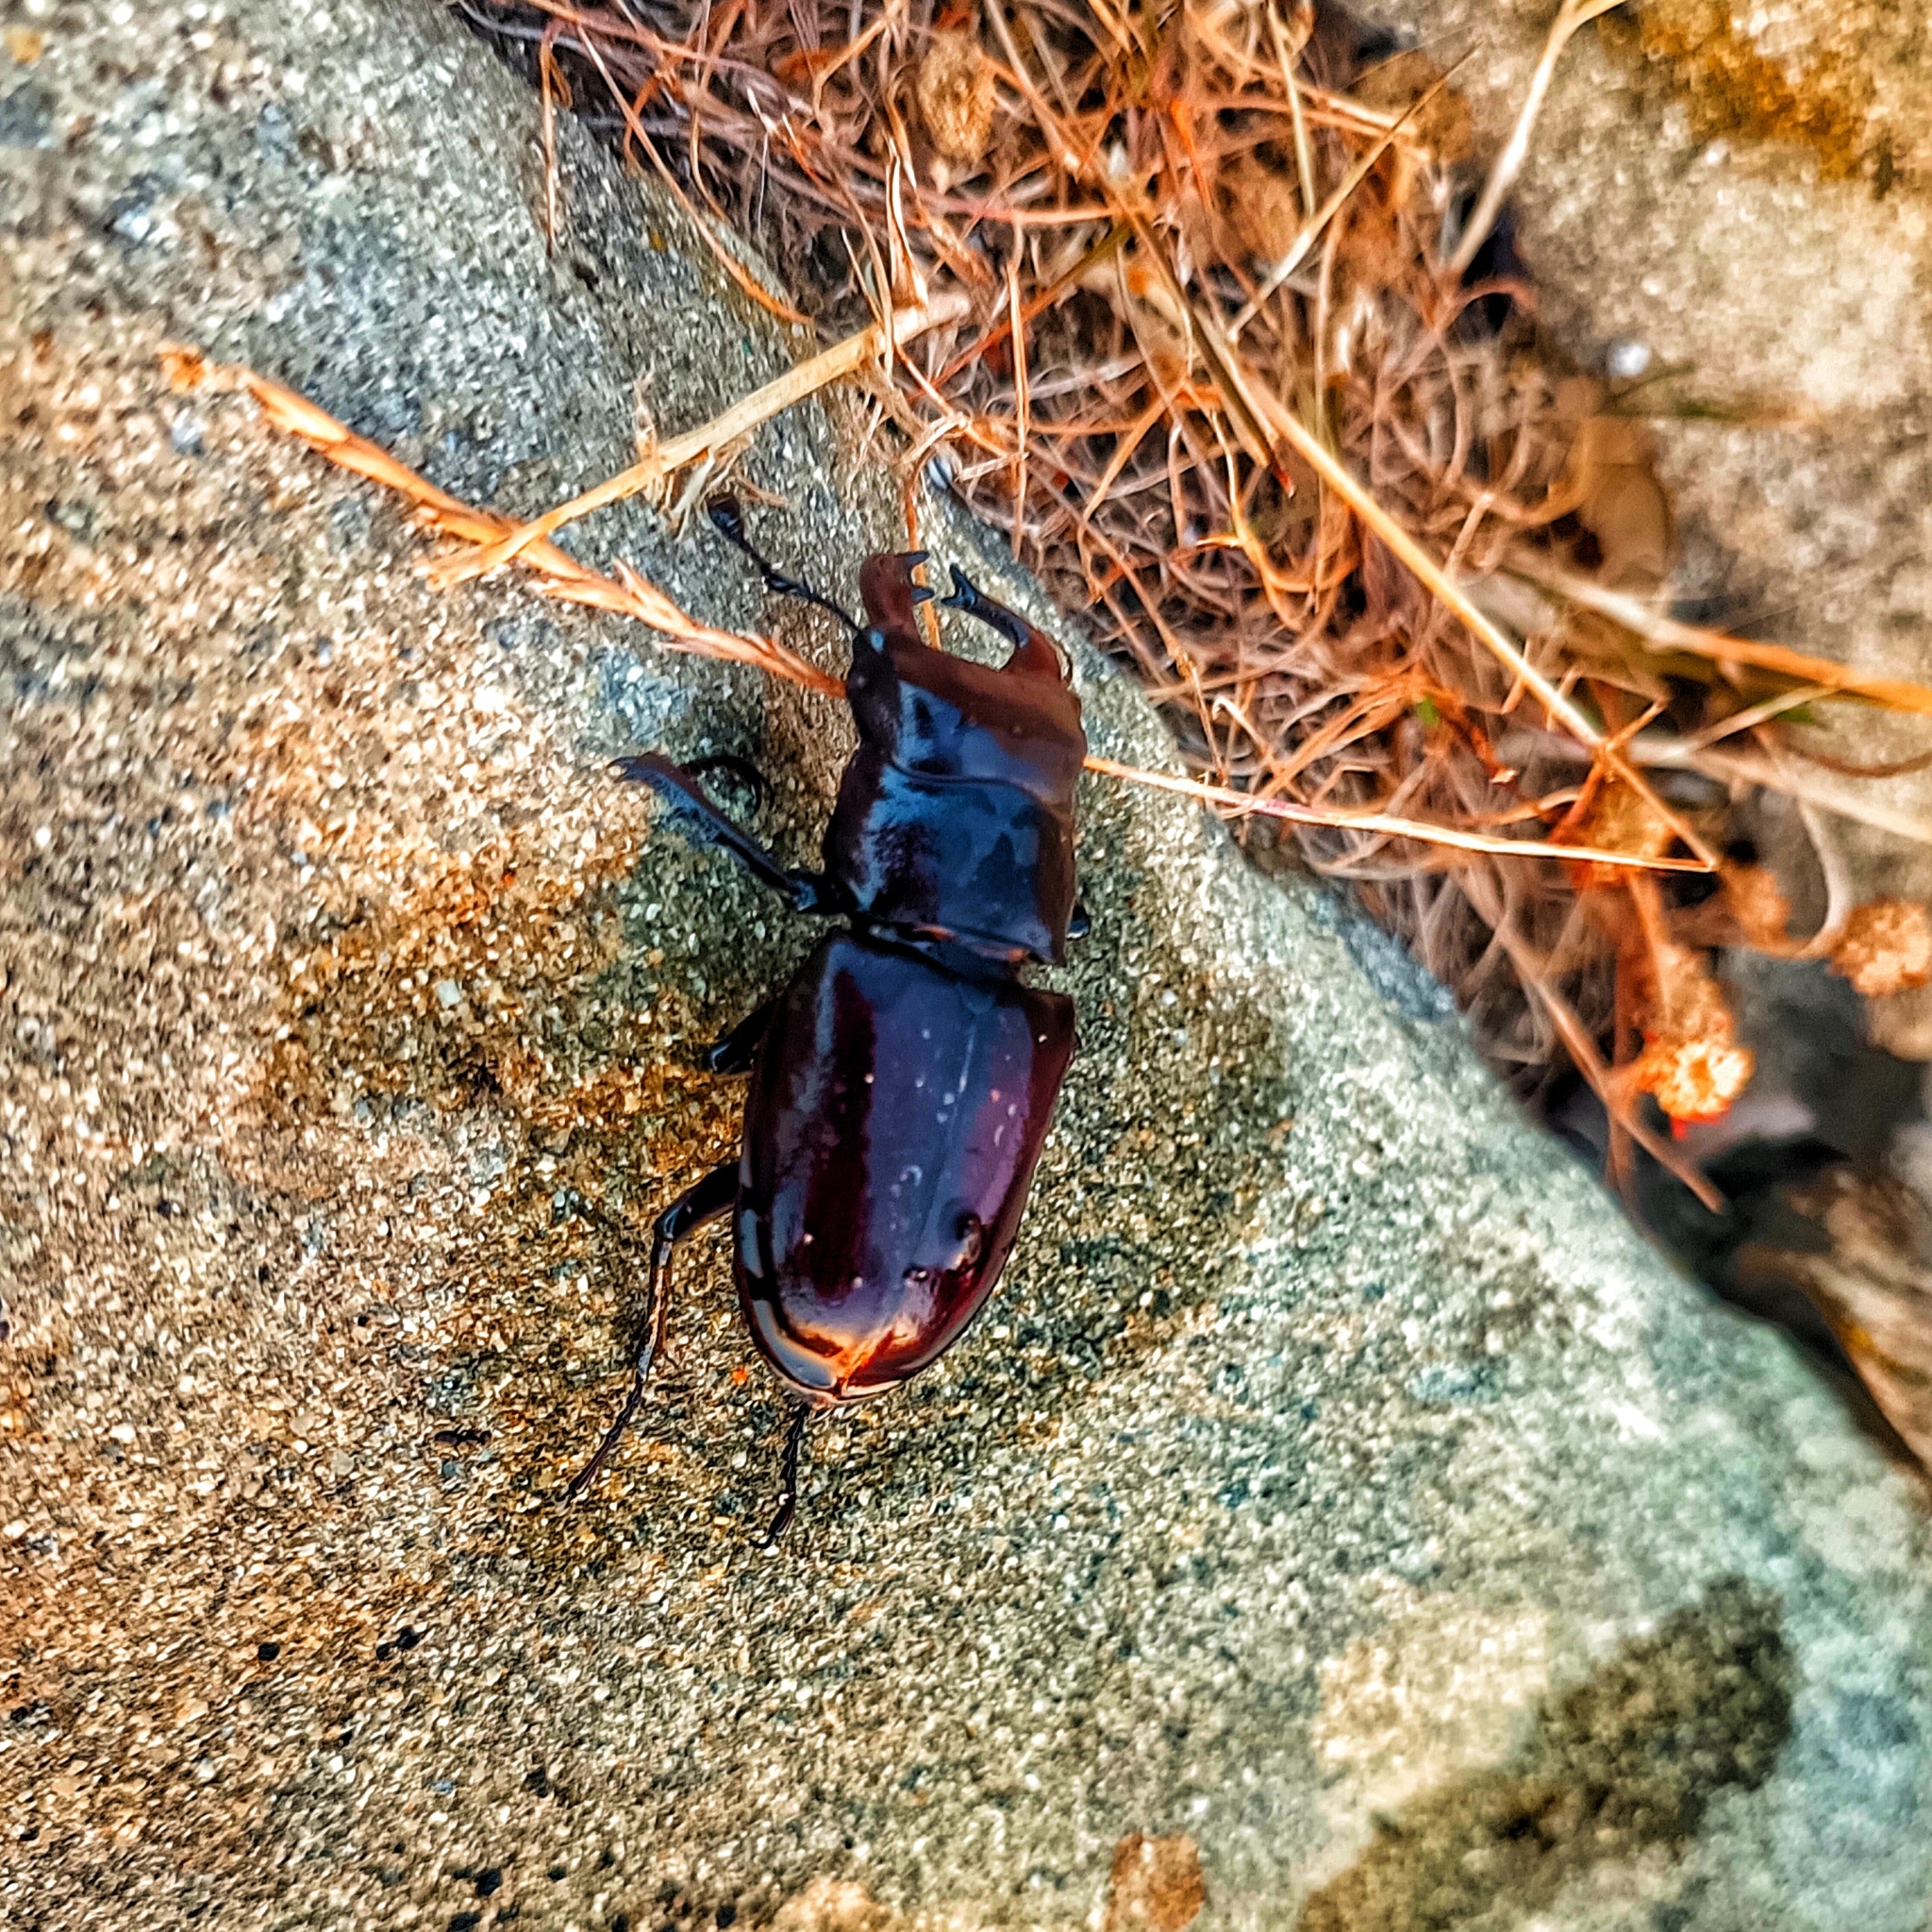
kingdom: Animalia
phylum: Arthropoda
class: Insecta
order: Coleoptera
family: Lucanidae
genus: Lucanus
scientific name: Lucanus tetraodon
